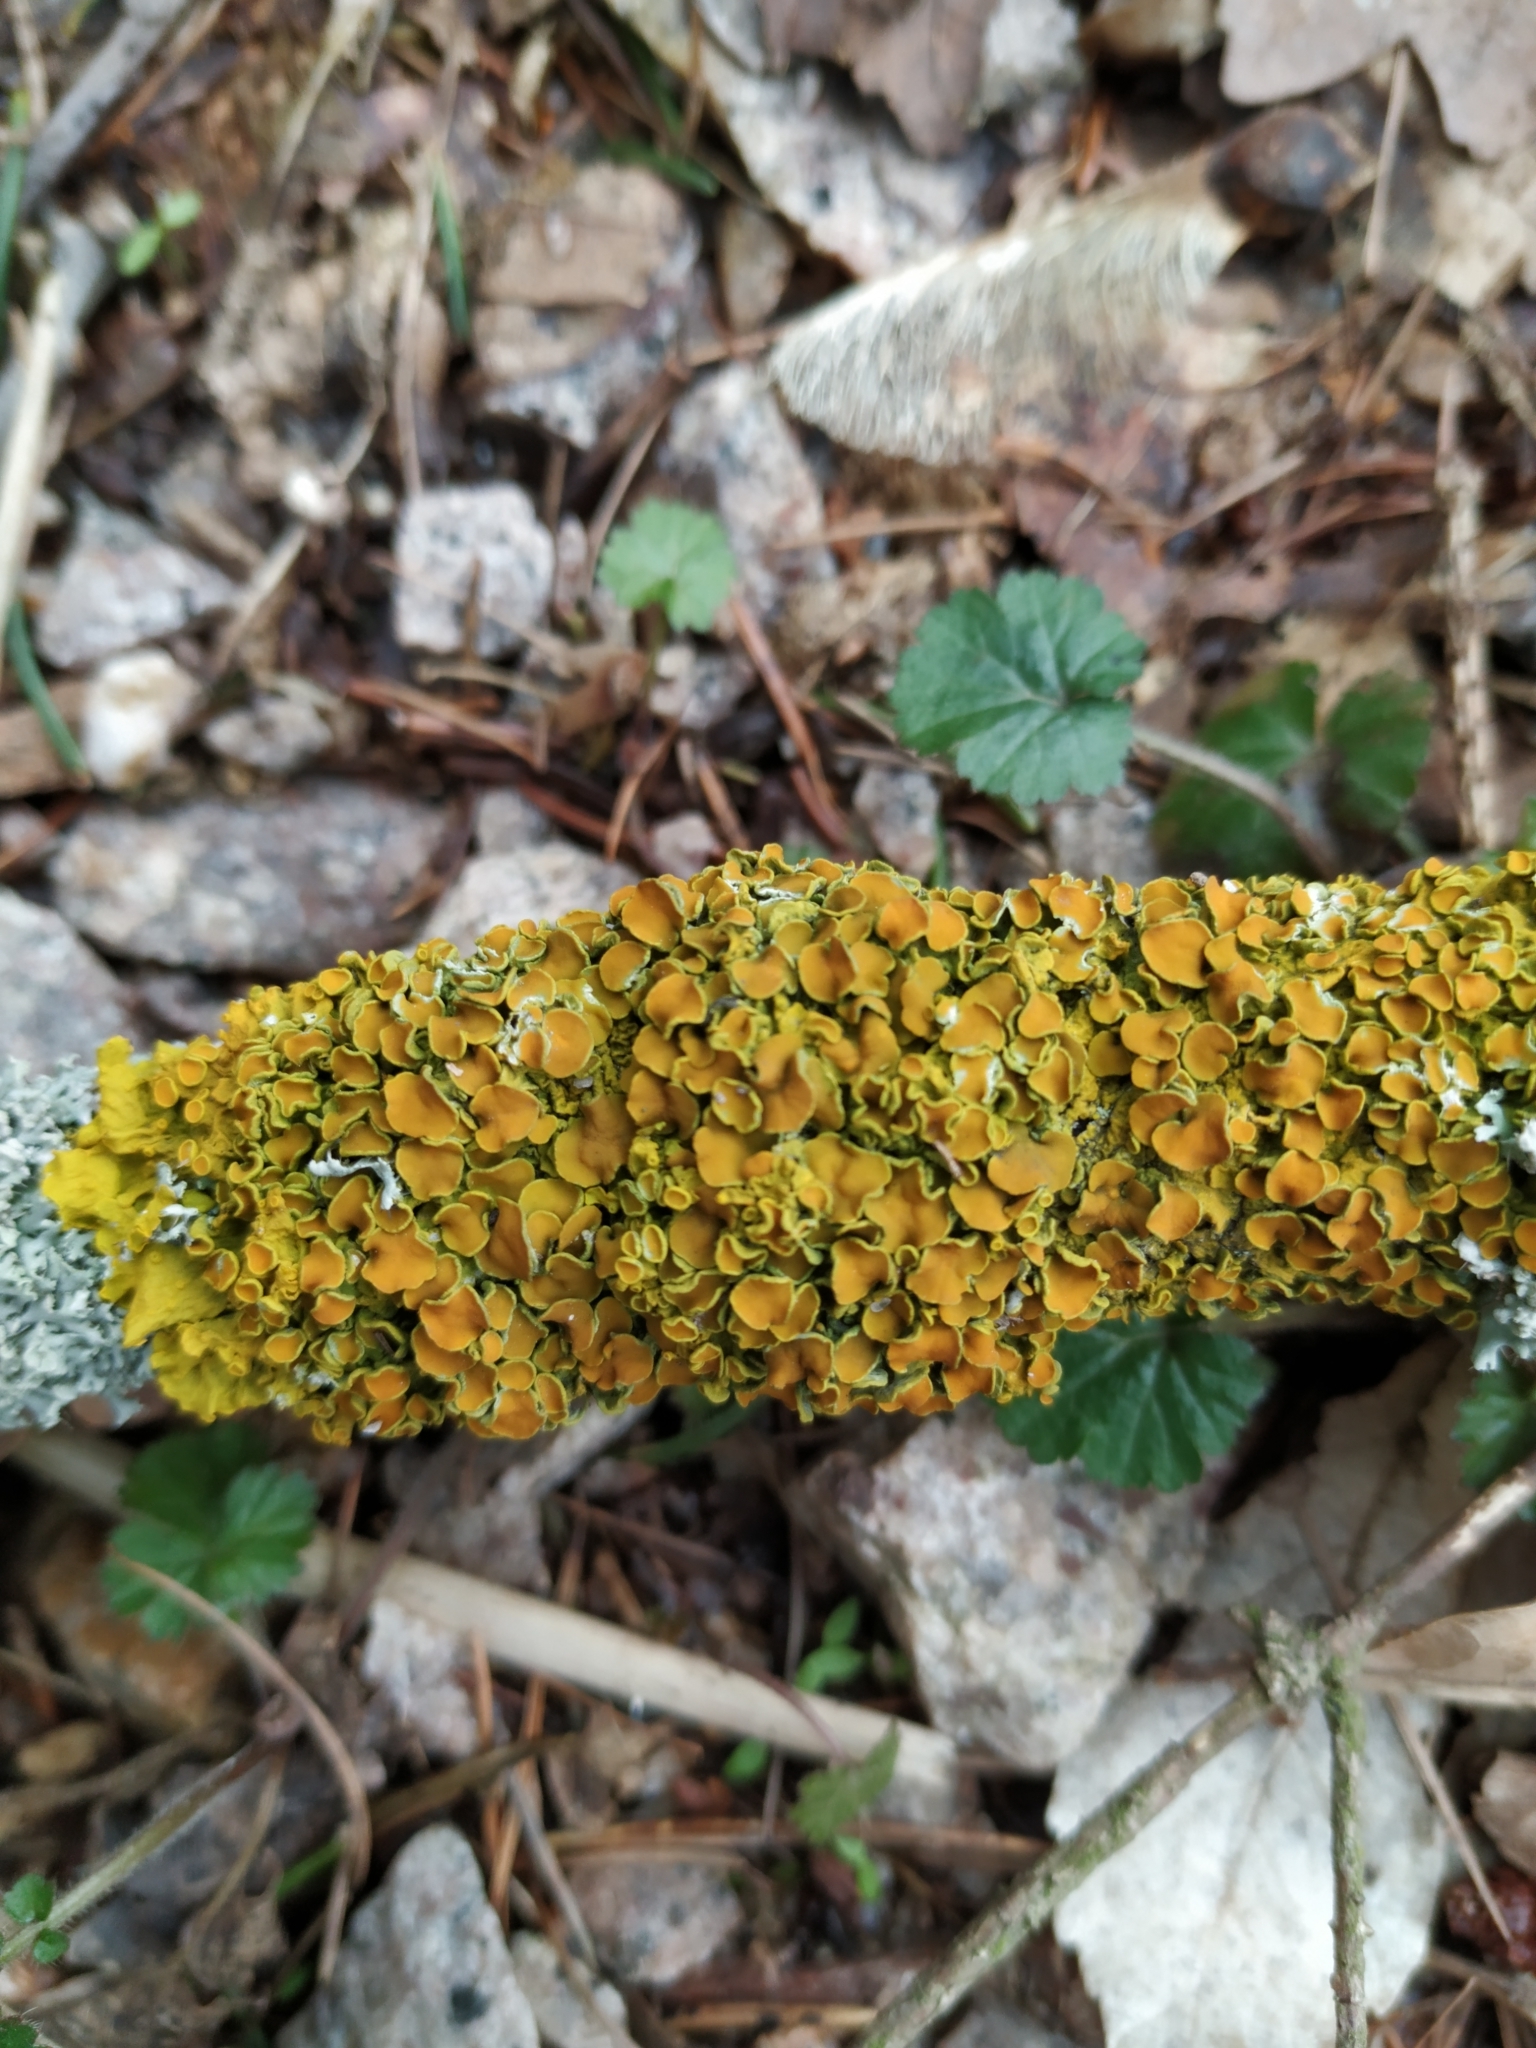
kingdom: Fungi
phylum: Ascomycota
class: Lecanoromycetes
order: Teloschistales
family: Teloschistaceae
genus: Xanthoria
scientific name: Xanthoria parietina
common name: Common orange lichen
